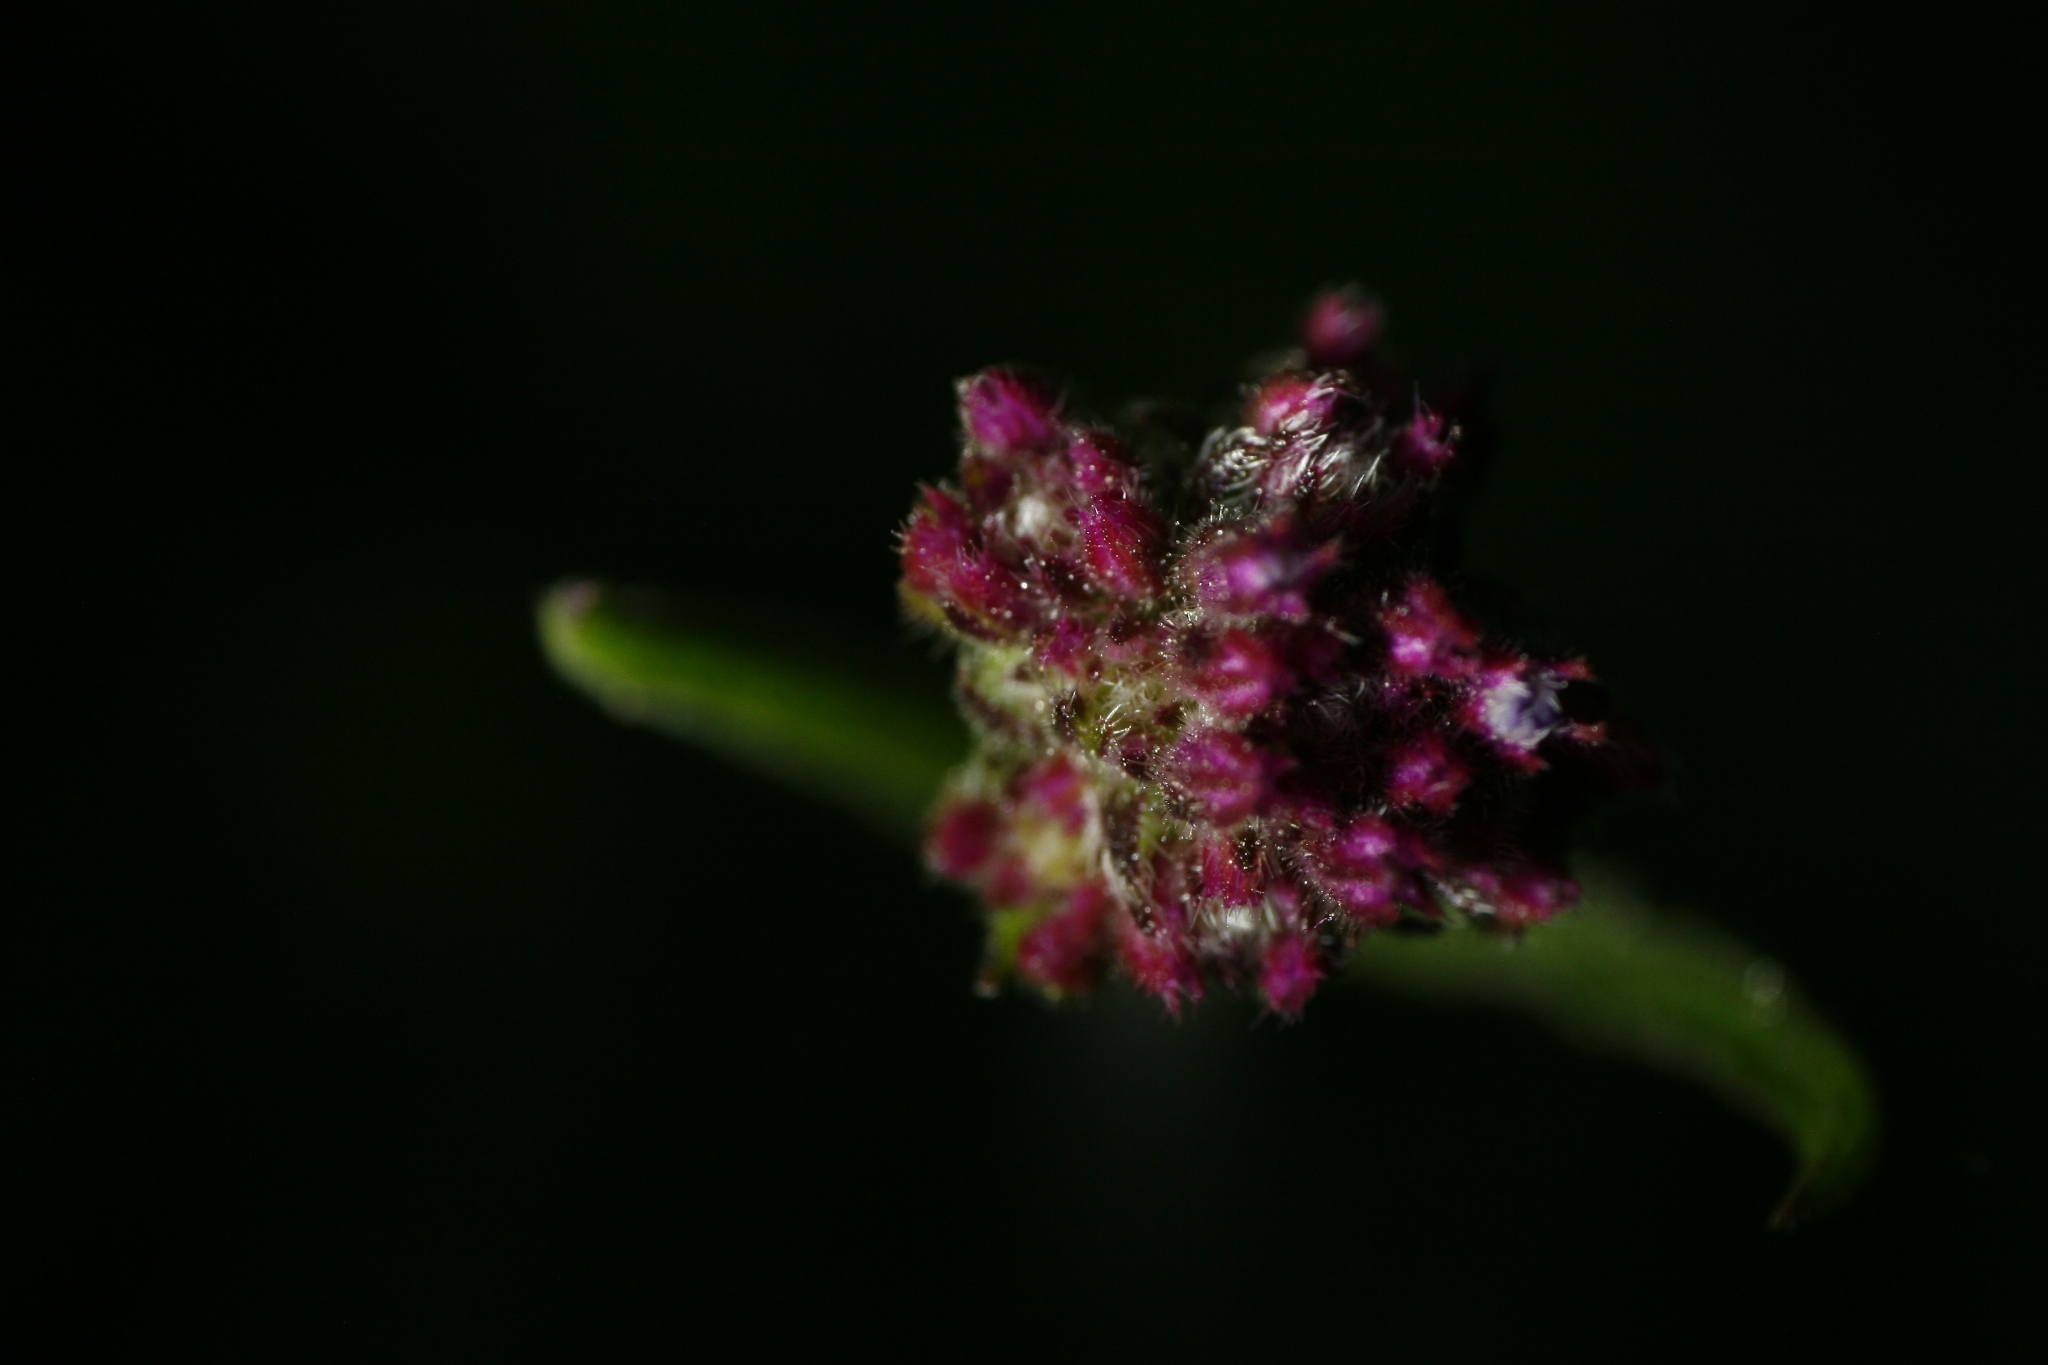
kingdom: Plantae
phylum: Tracheophyta
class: Magnoliopsida
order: Lamiales
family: Verbenaceae
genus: Verbena
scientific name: Verbena bonariensis
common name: Purpletop vervain
